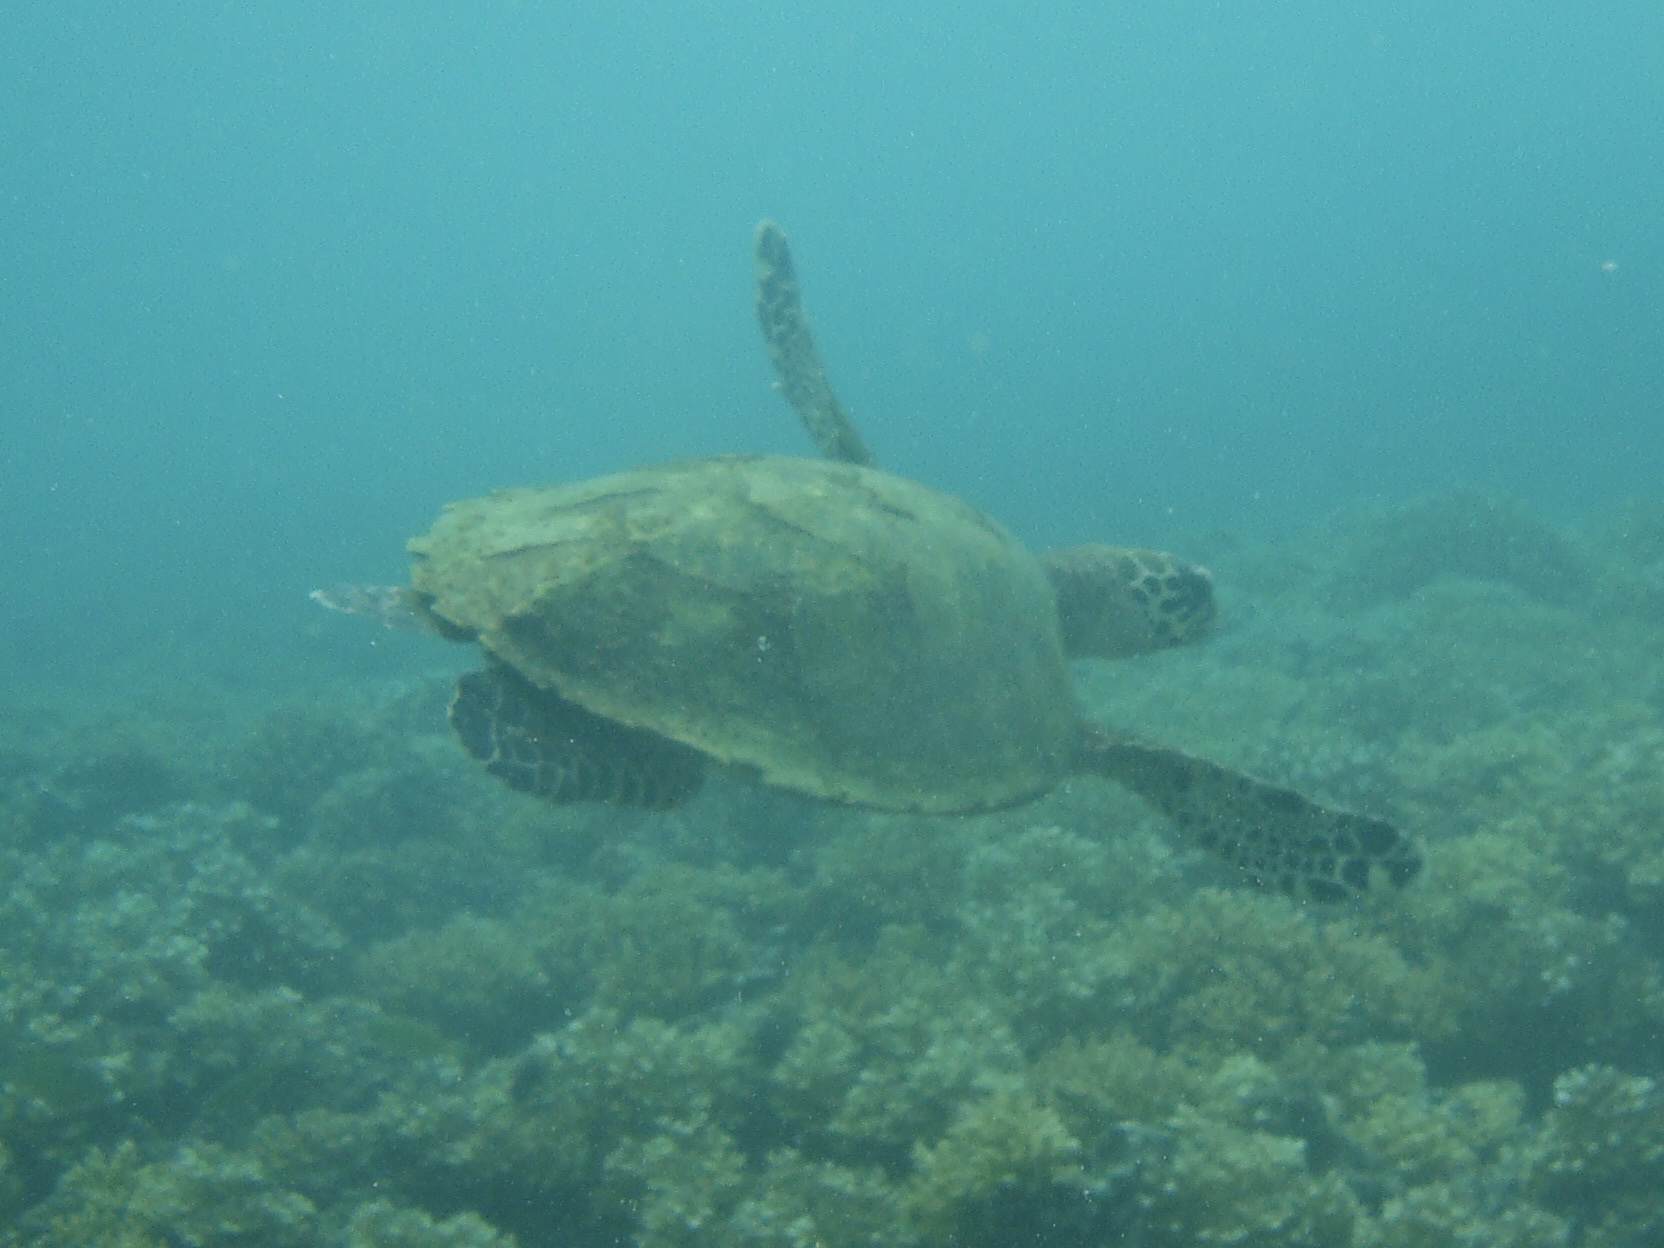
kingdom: Animalia
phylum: Chordata
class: Testudines
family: Cheloniidae
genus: Eretmochelys
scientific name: Eretmochelys imbricata
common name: Hawksbill turtle
